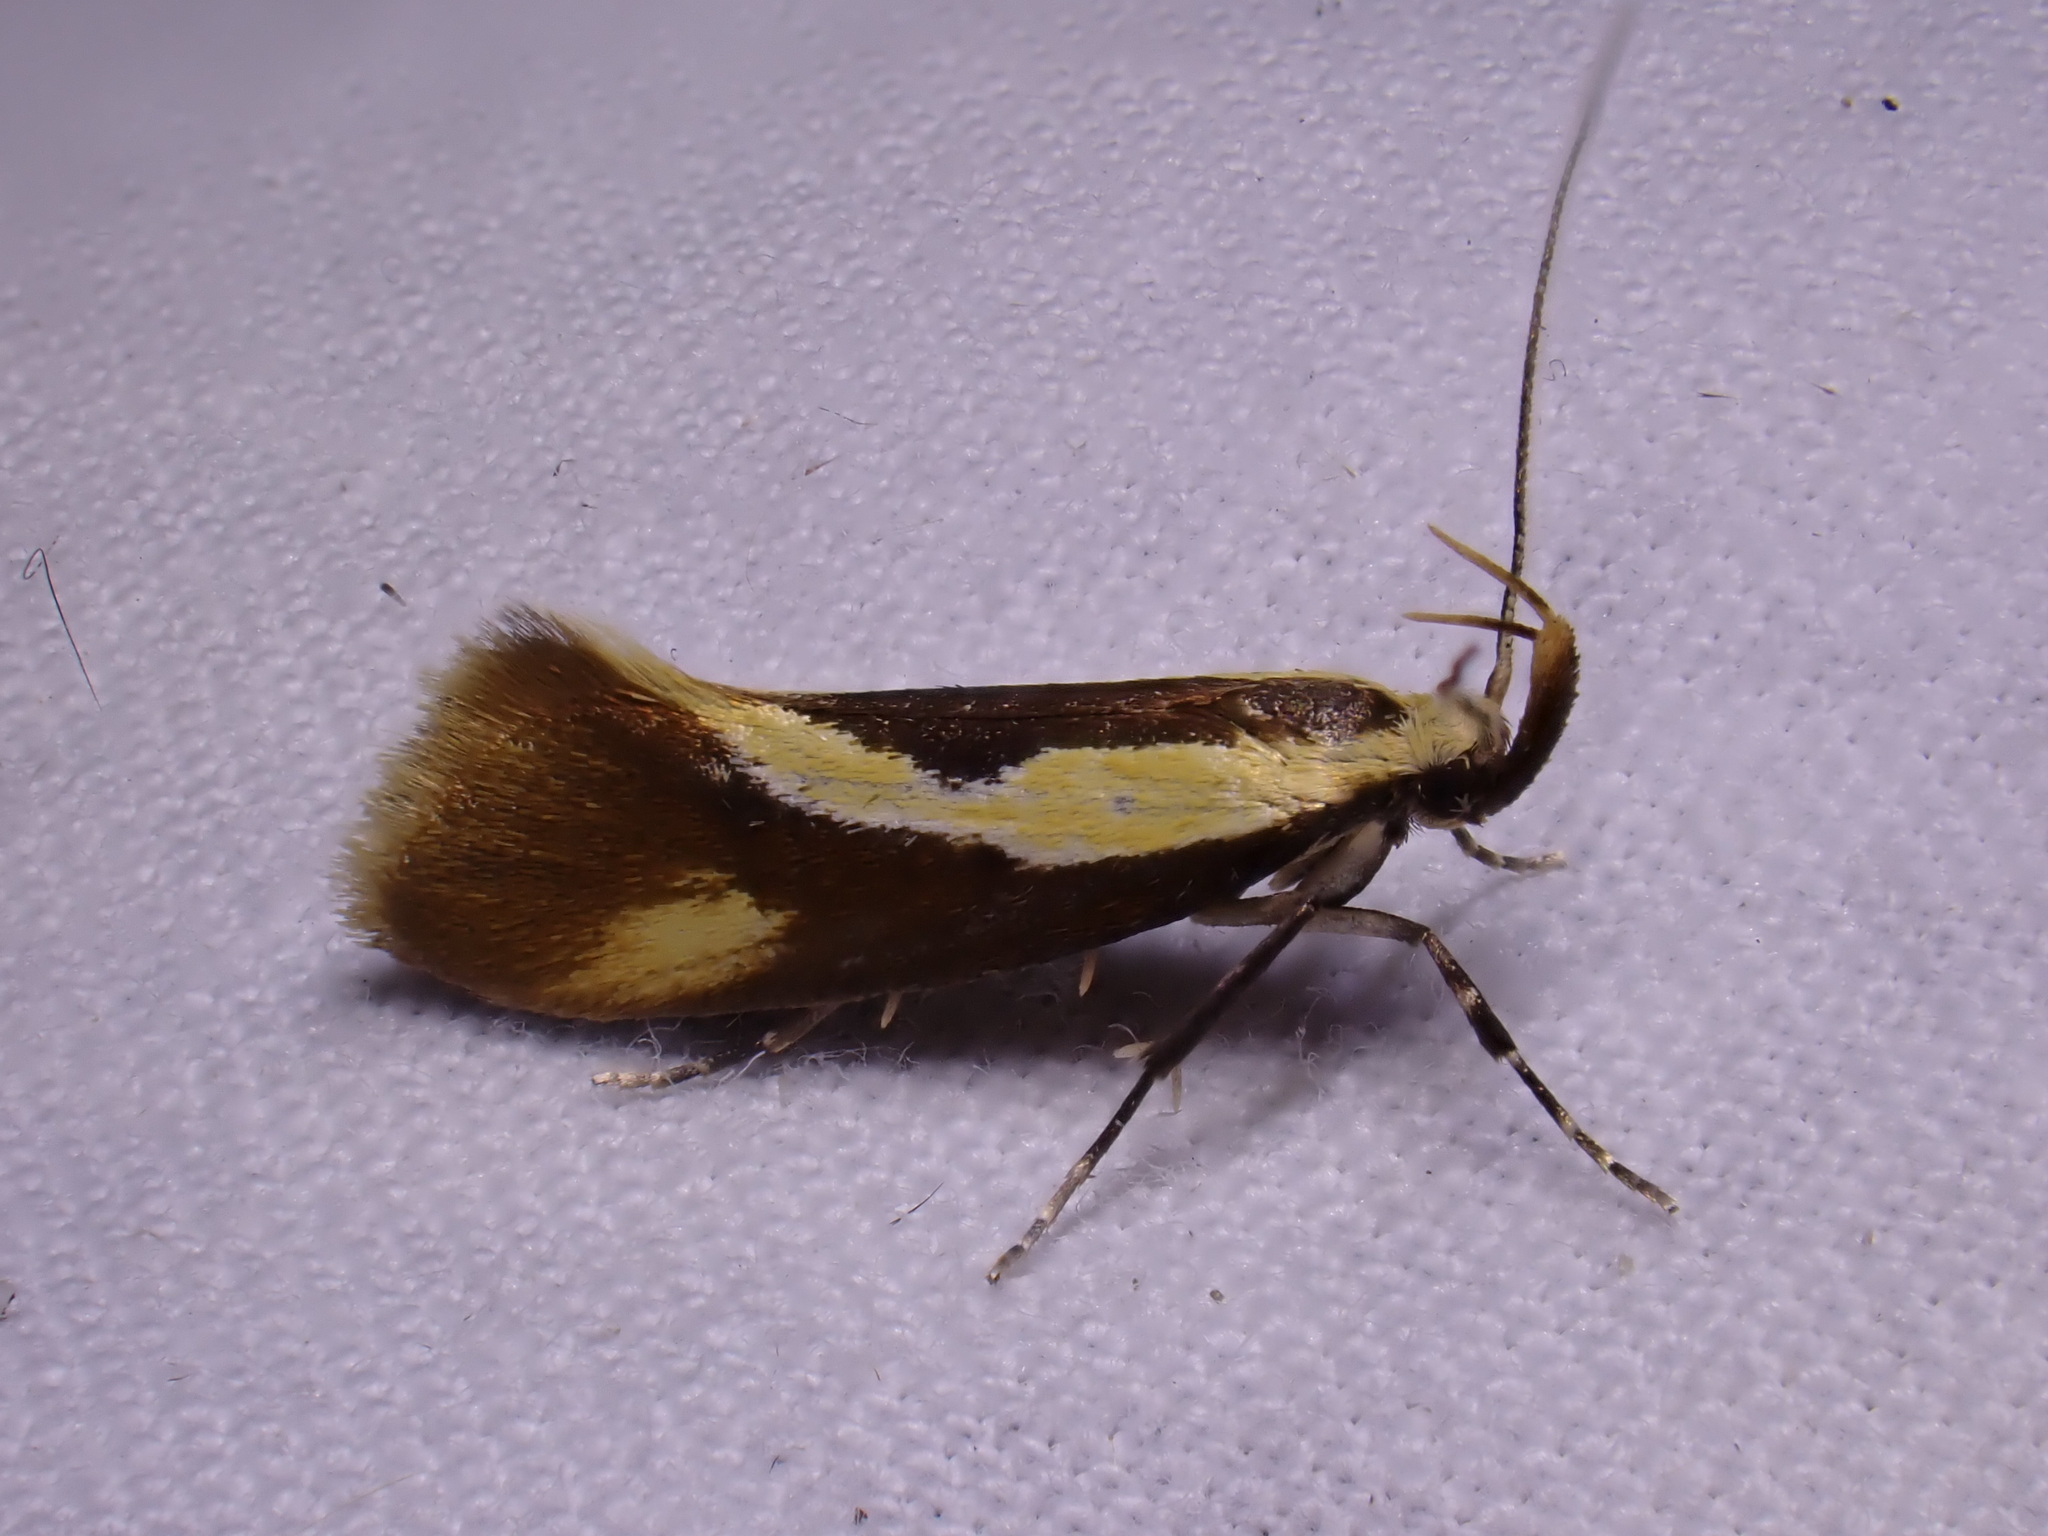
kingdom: Animalia
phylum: Arthropoda
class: Insecta
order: Lepidoptera
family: Oecophoridae
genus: Harpella
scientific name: Harpella forficella
